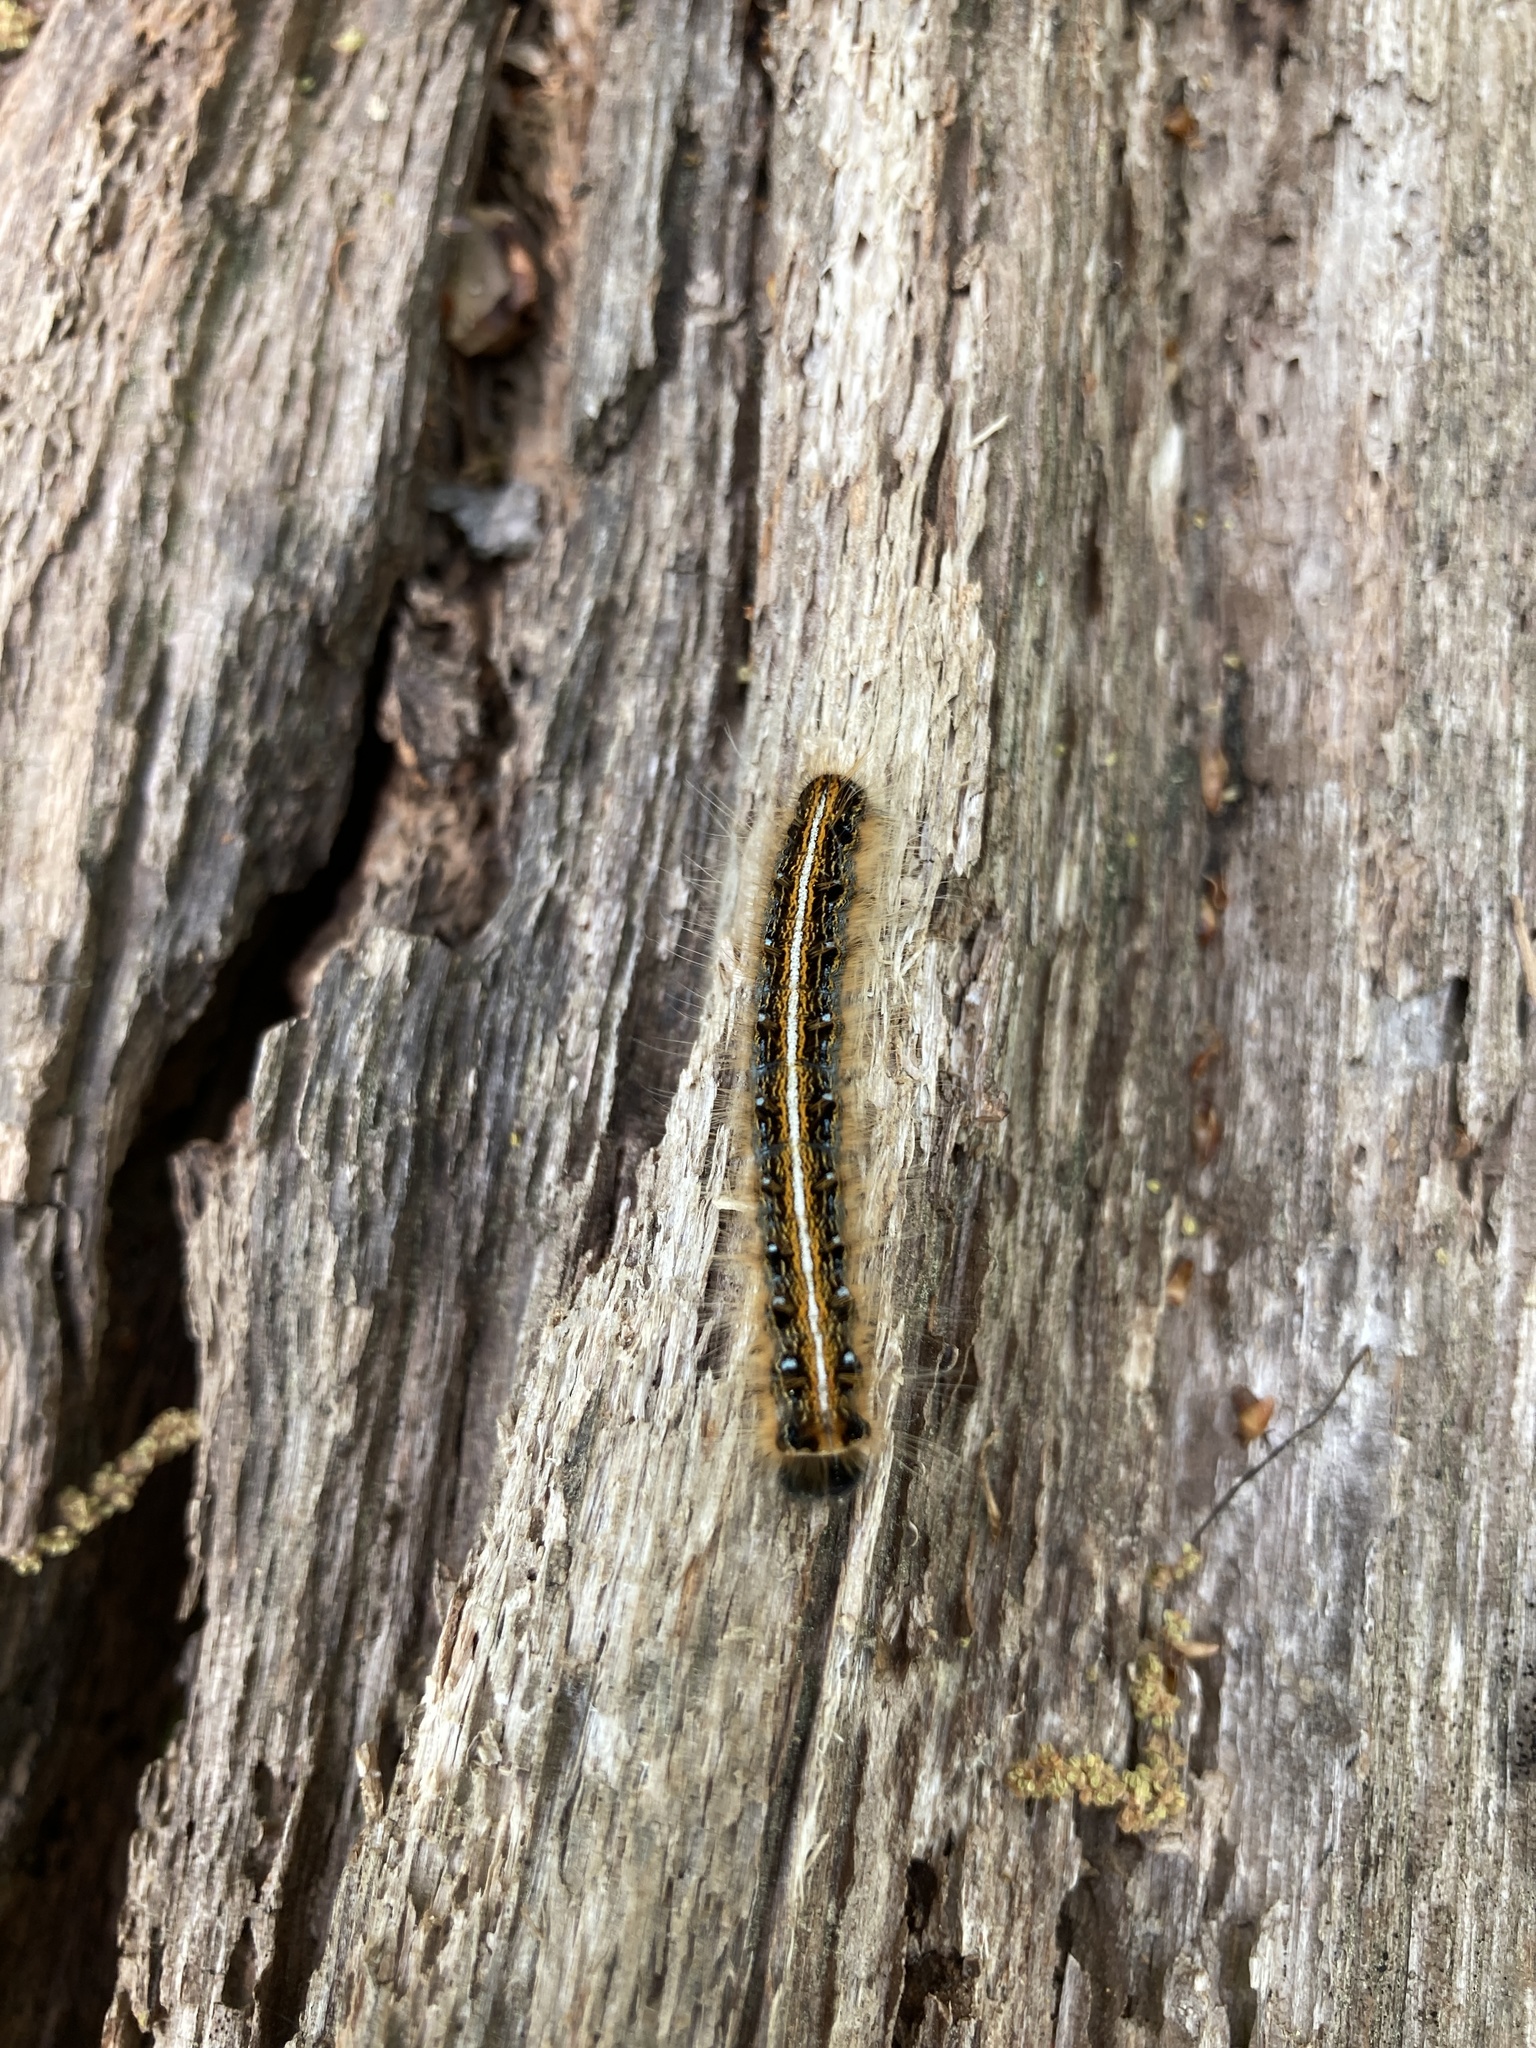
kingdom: Animalia
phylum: Arthropoda
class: Insecta
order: Lepidoptera
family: Lasiocampidae
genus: Malacosoma
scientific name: Malacosoma americana
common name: Eastern tent caterpillar moth
